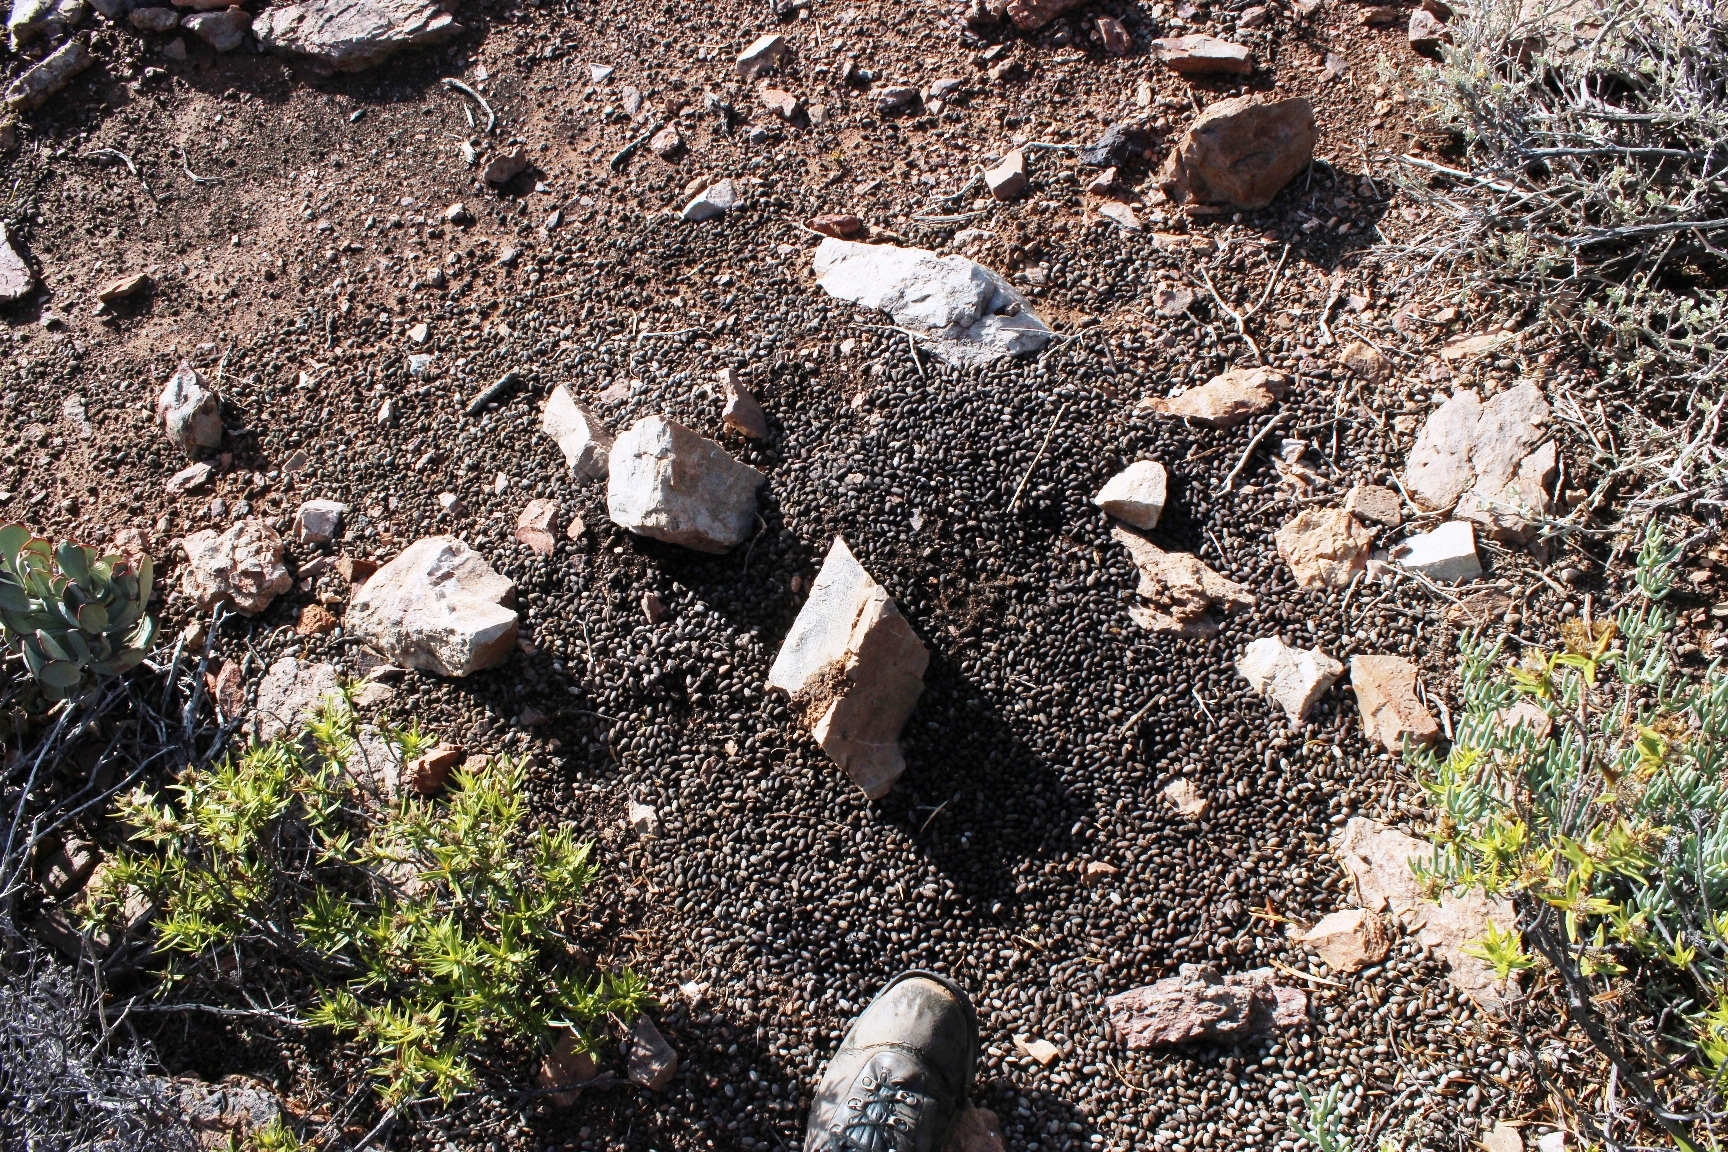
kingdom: Animalia
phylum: Chordata
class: Mammalia
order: Artiodactyla
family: Bovidae
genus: Oreotragus
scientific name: Oreotragus oreotragus
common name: Klipspringer
